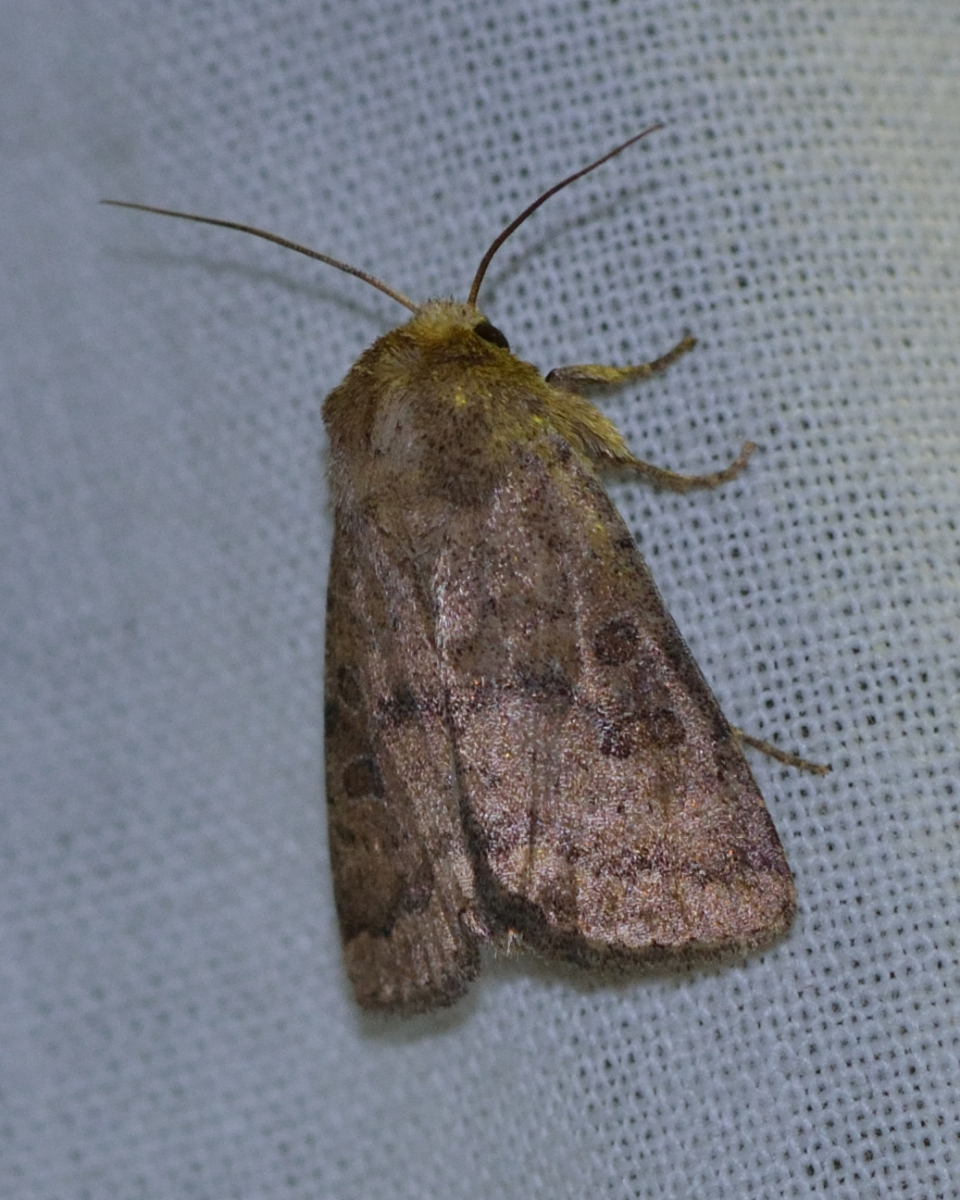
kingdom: Animalia
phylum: Arthropoda
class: Insecta
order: Lepidoptera
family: Noctuidae
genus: Hoplodrina
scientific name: Hoplodrina octogenaria
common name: Uncertain
